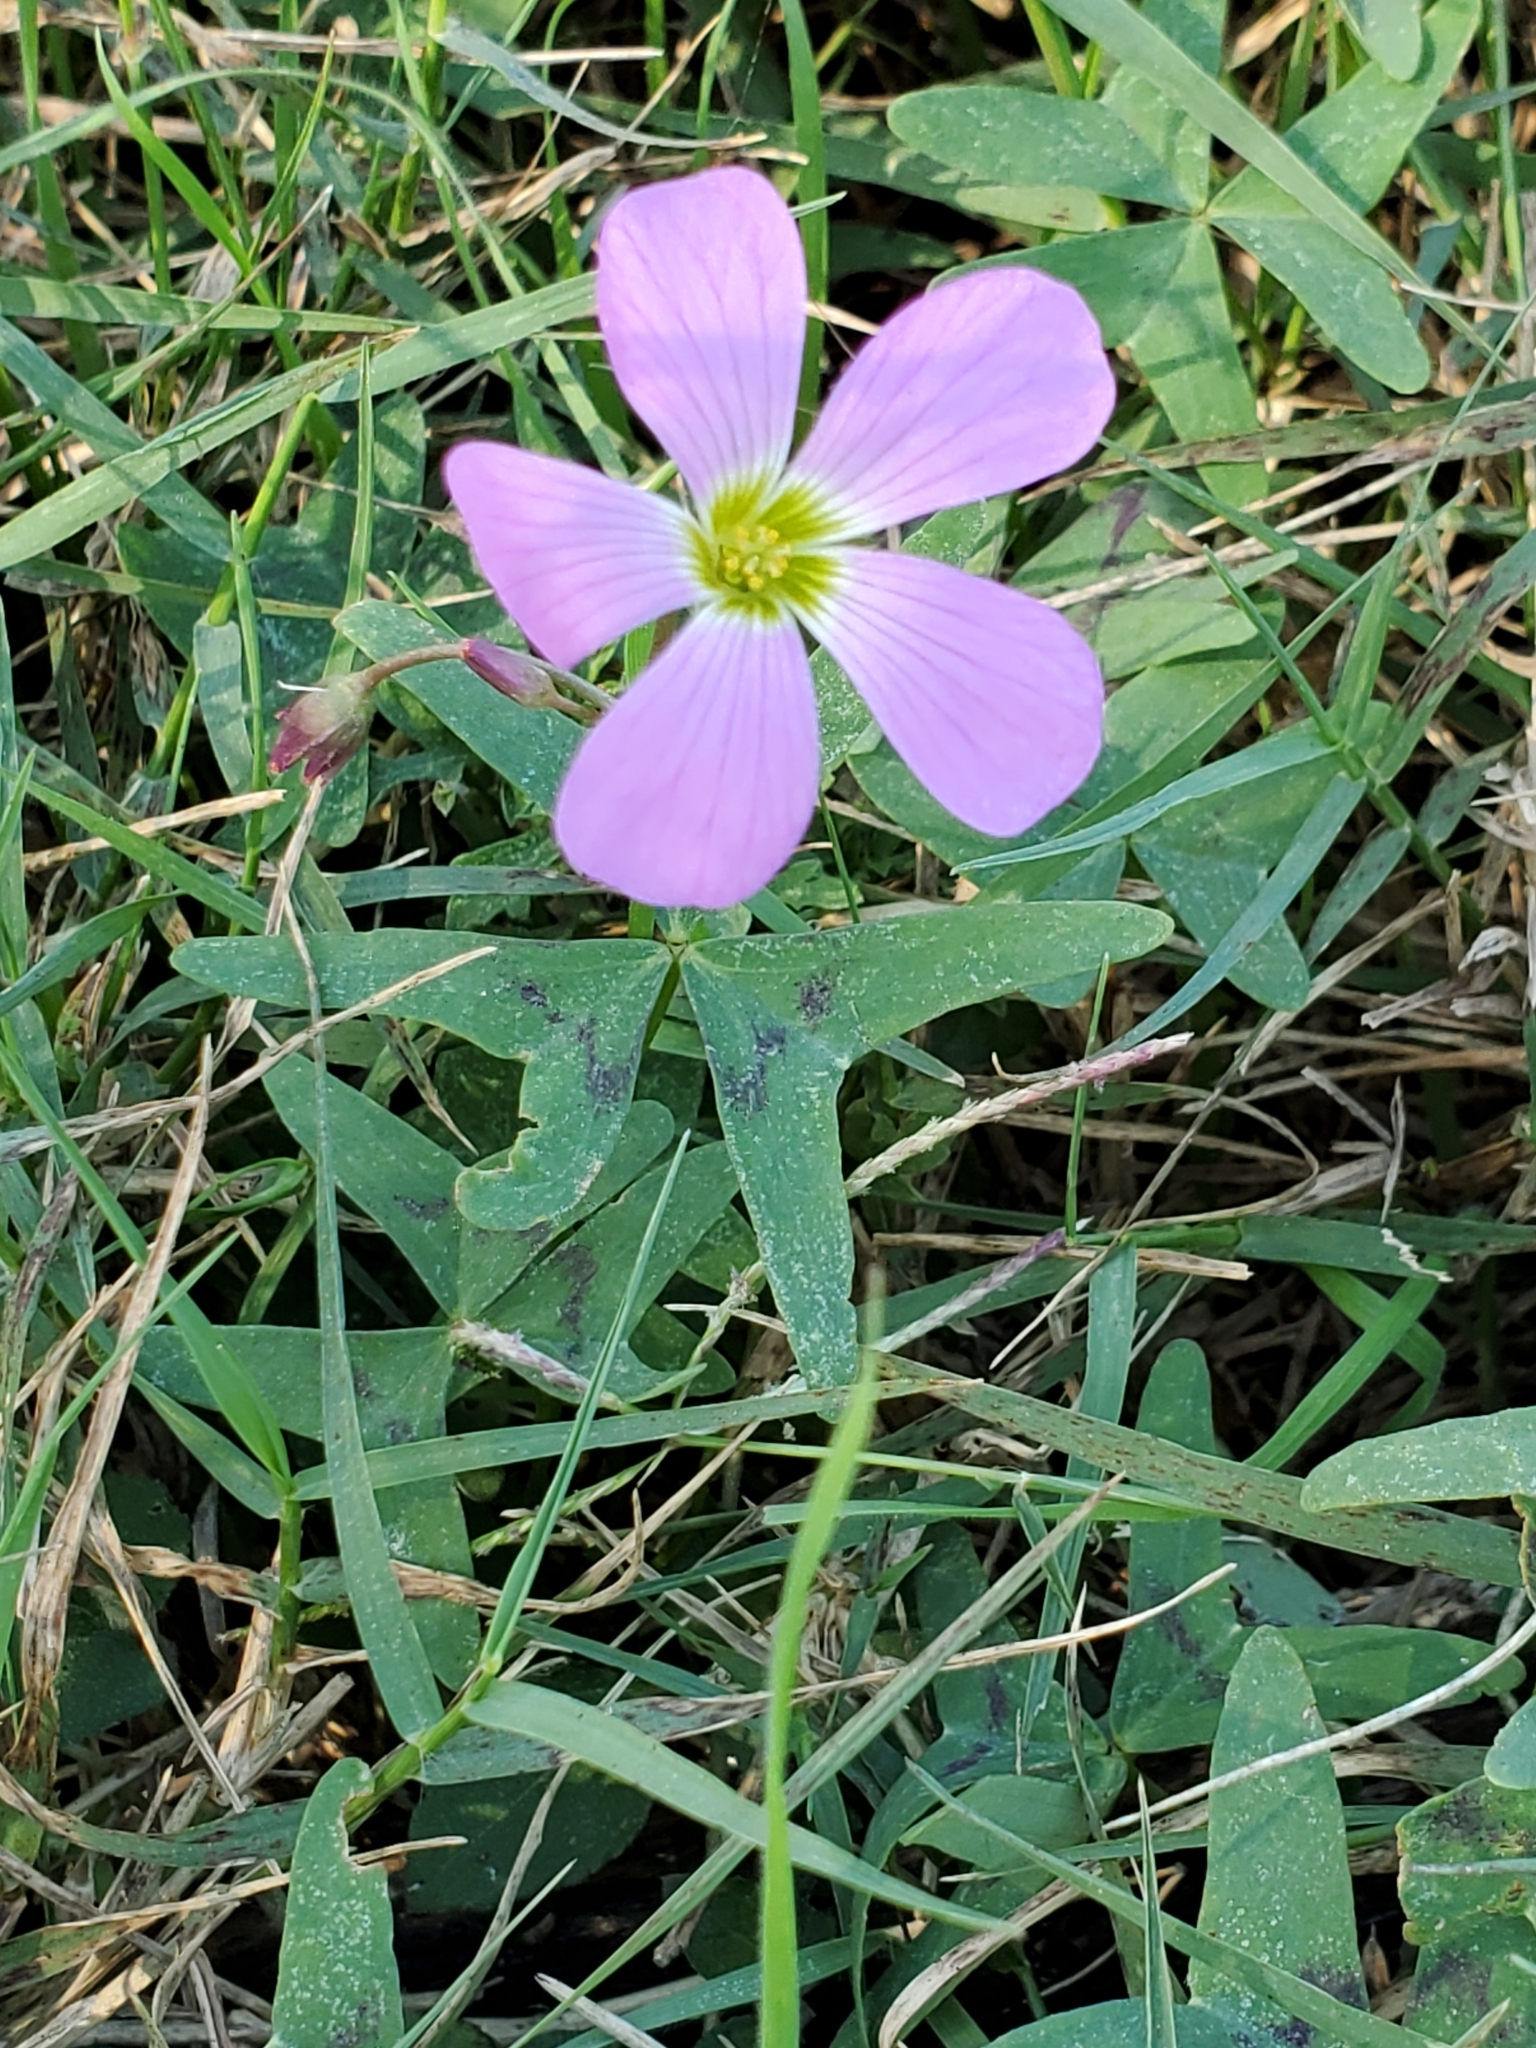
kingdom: Plantae
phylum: Tracheophyta
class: Magnoliopsida
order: Oxalidales
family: Oxalidaceae
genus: Oxalis
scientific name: Oxalis drummondii
